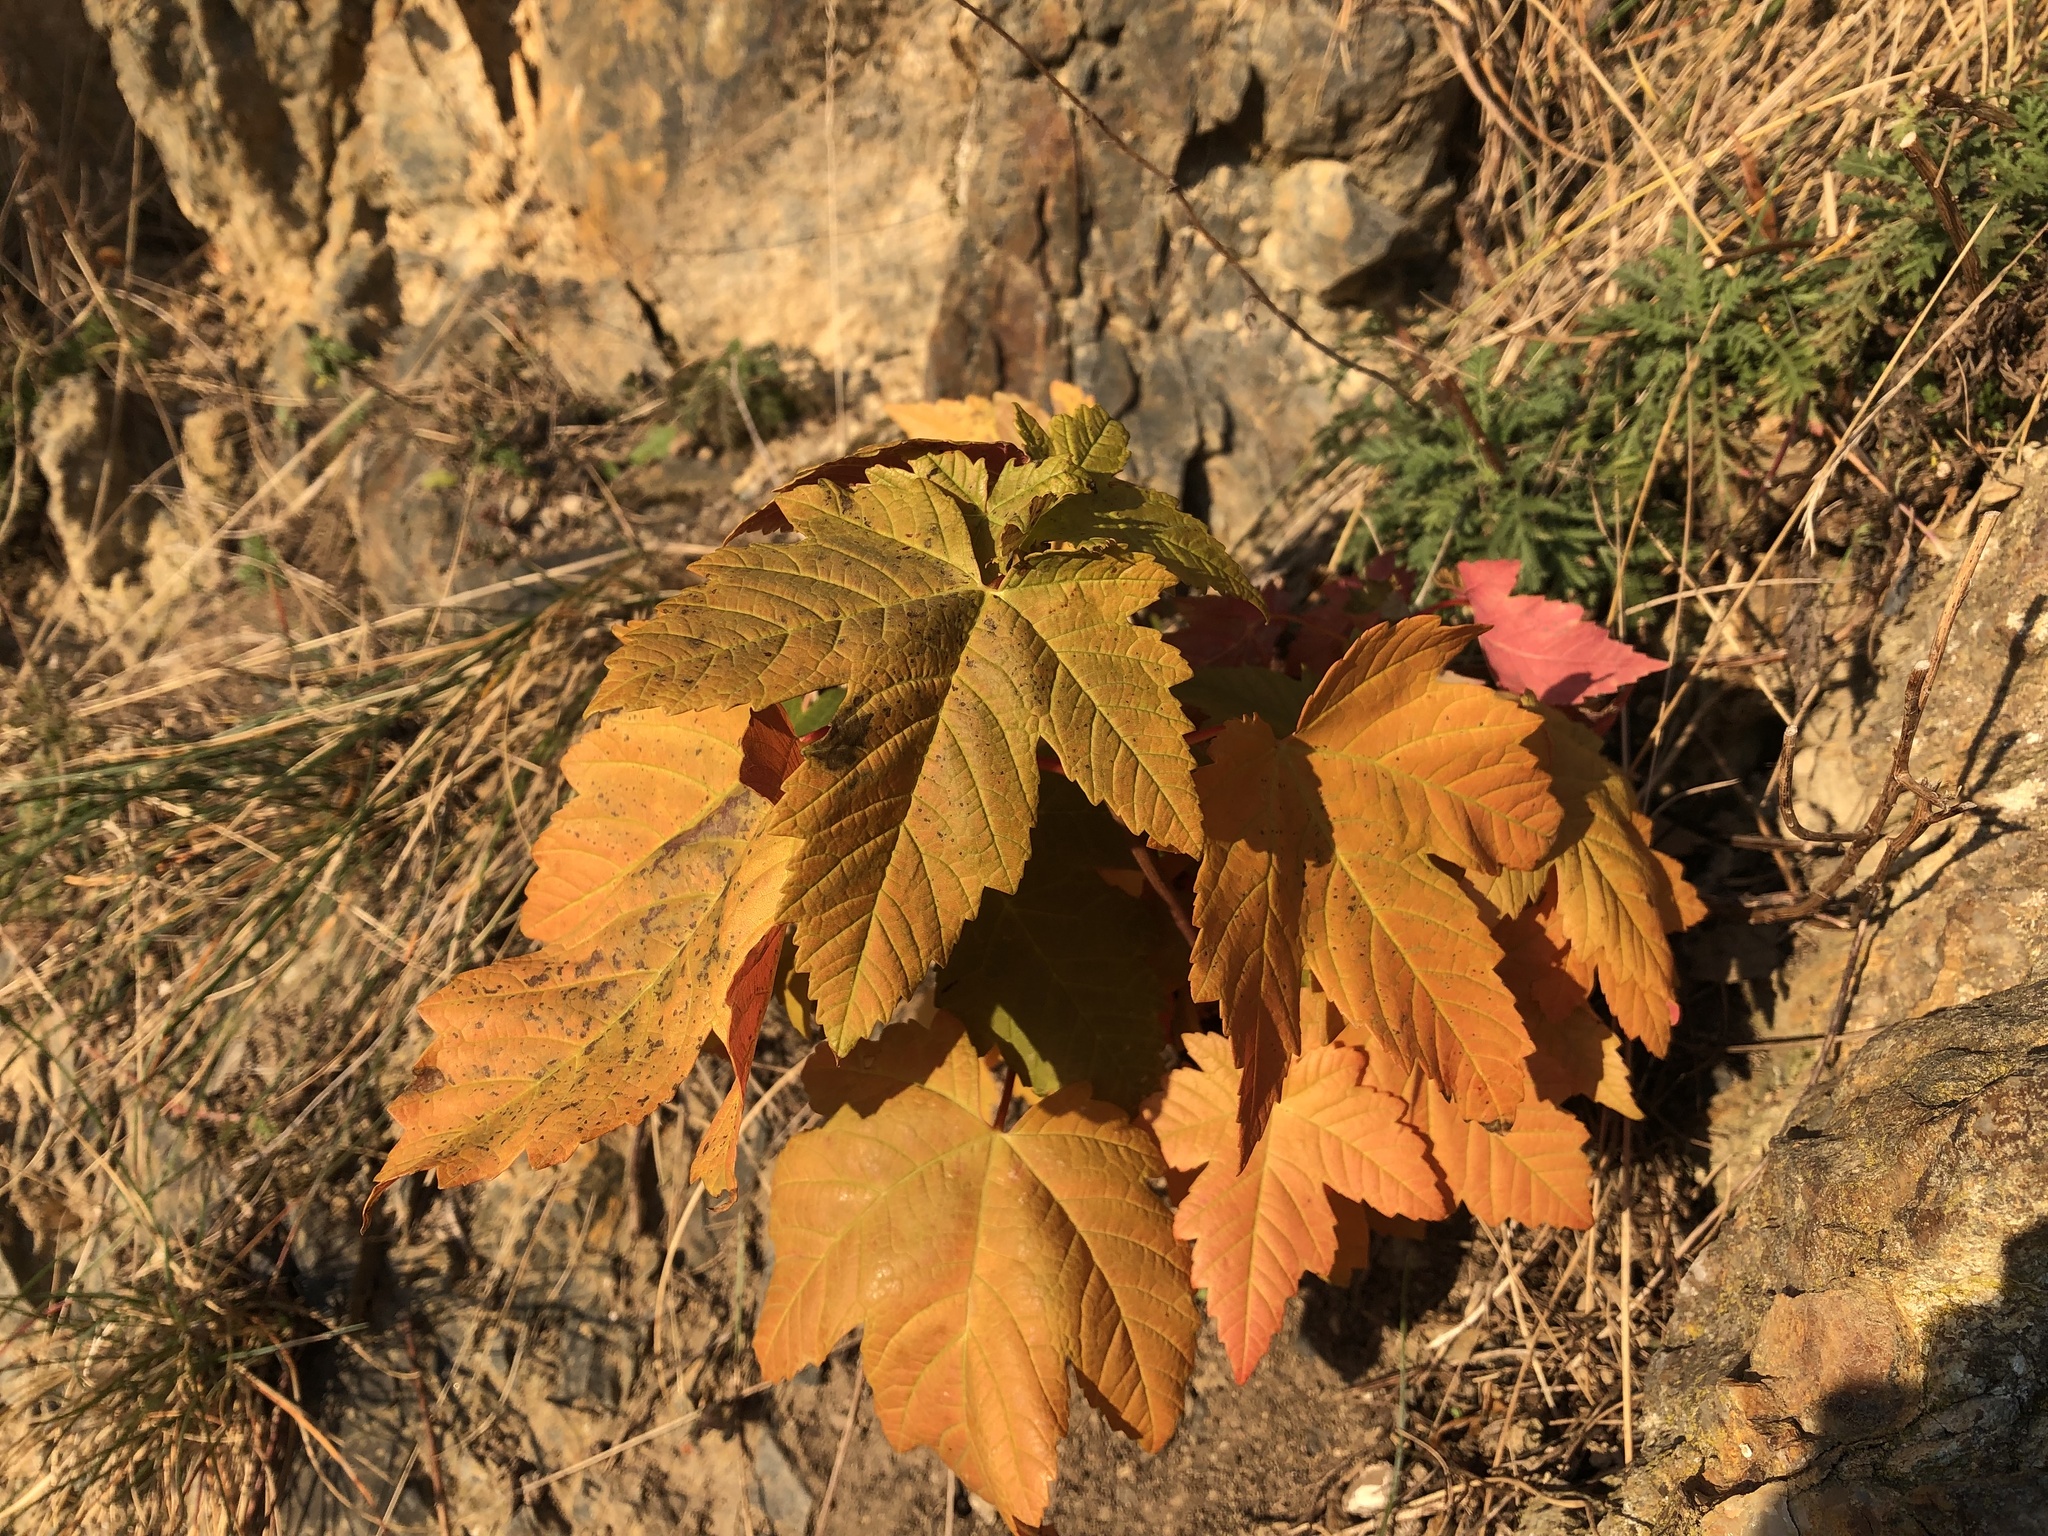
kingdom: Plantae
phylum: Tracheophyta
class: Magnoliopsida
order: Sapindales
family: Sapindaceae
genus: Acer
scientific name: Acer pseudoplatanus
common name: Sycamore
